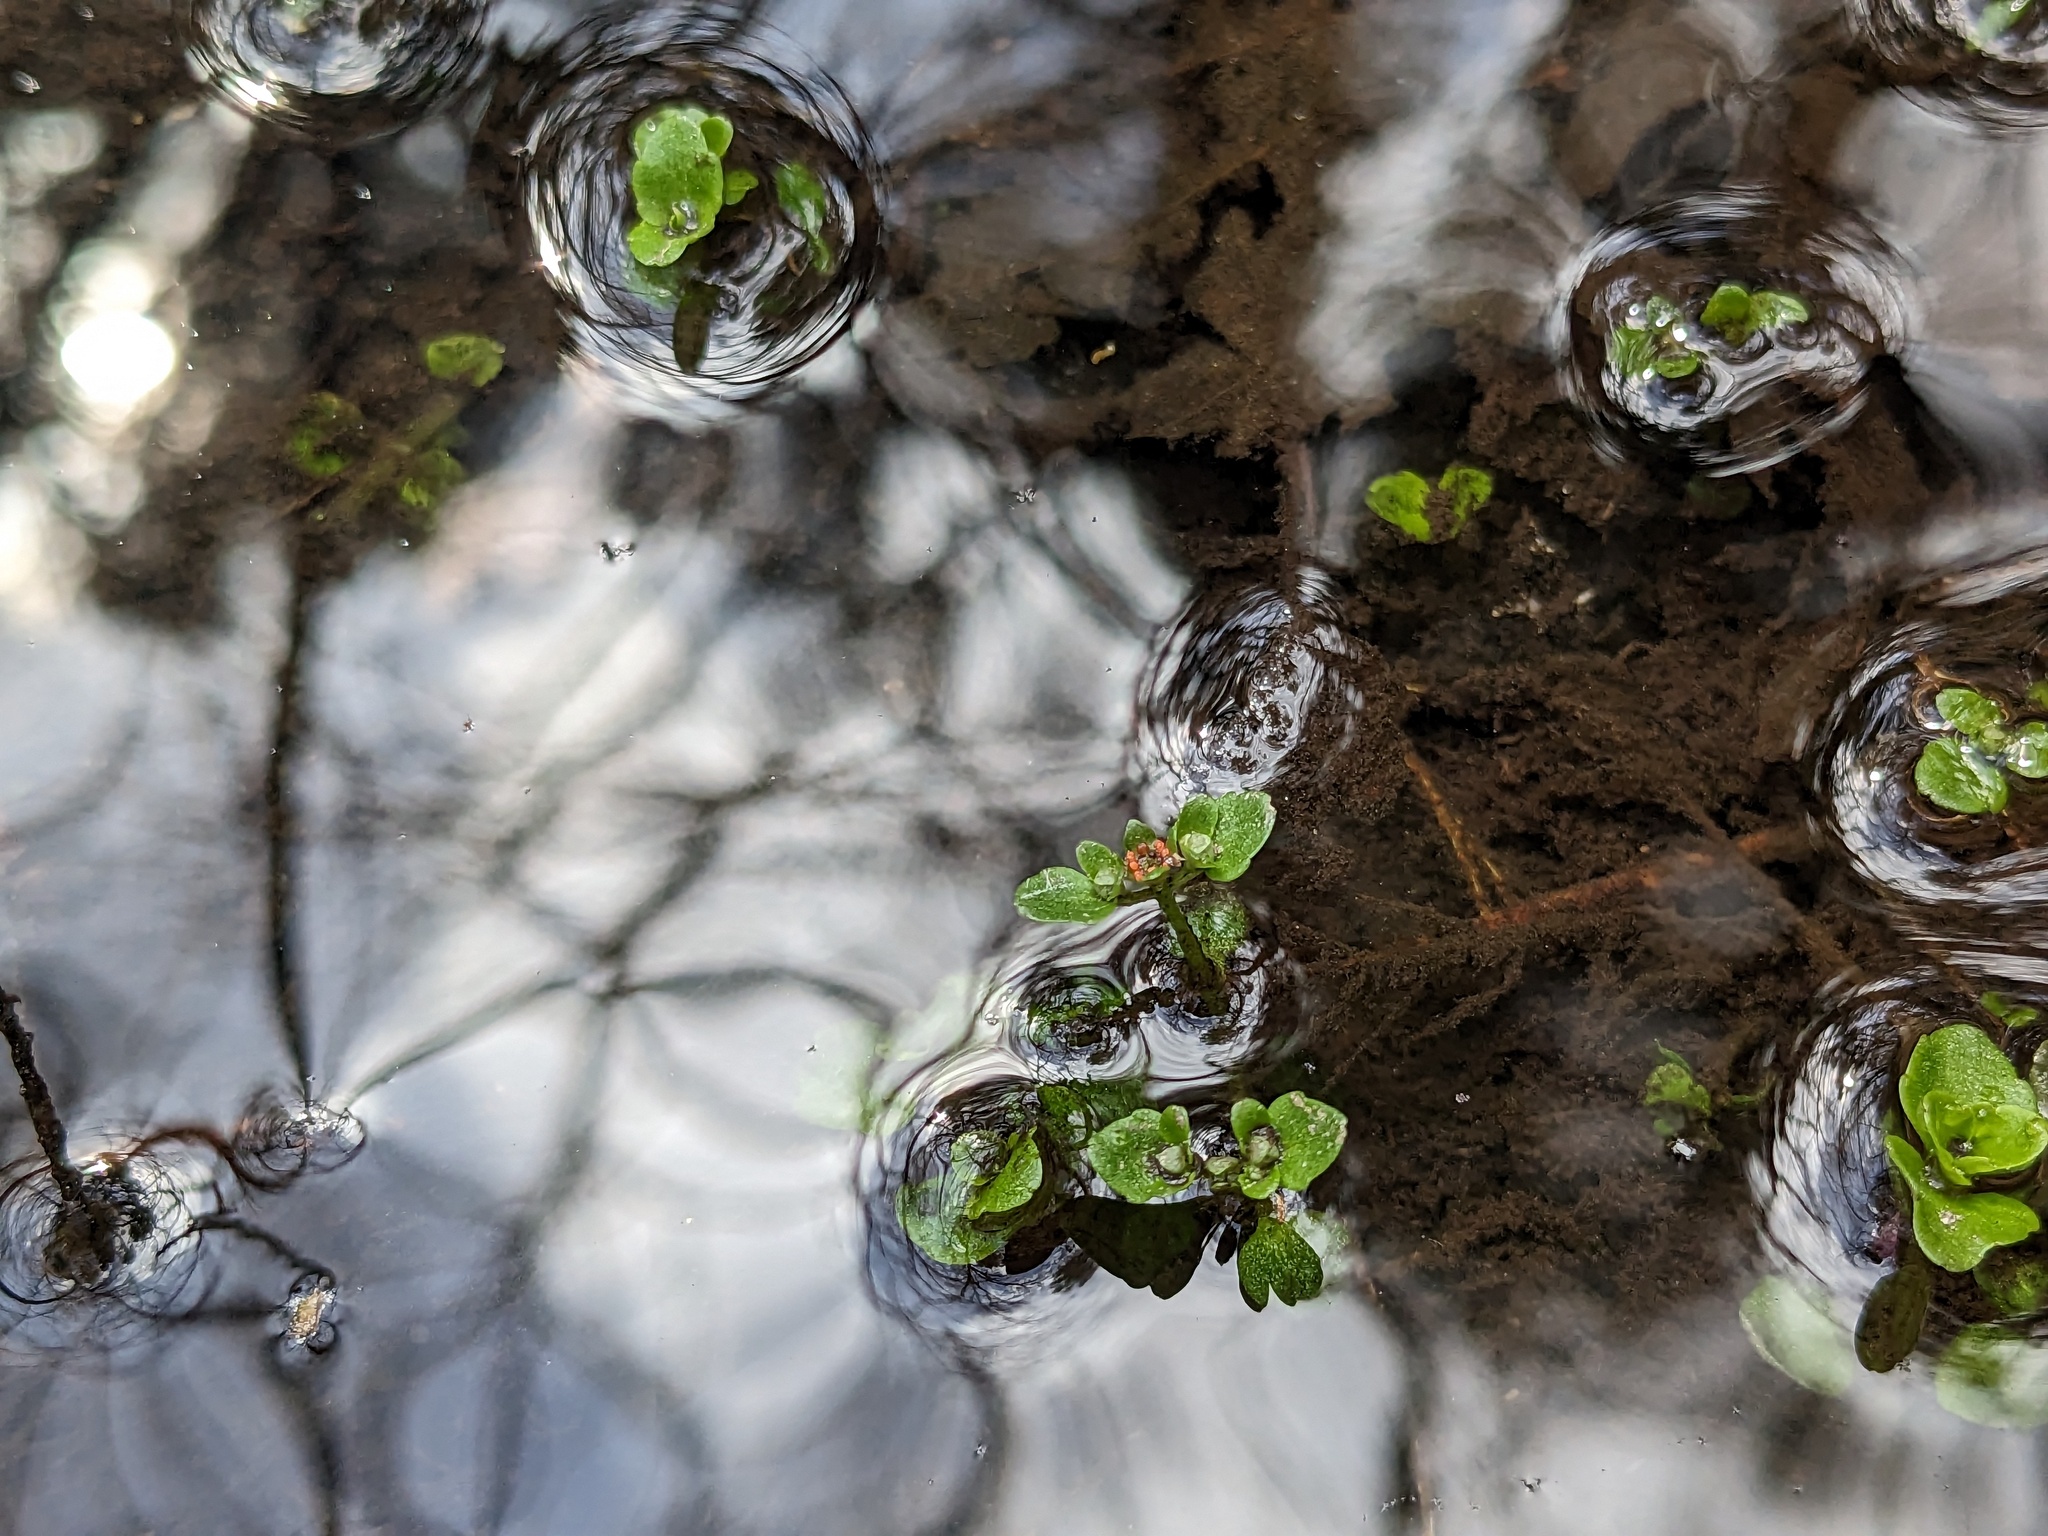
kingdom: Plantae
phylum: Tracheophyta
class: Magnoliopsida
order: Saxifragales
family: Saxifragaceae
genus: Chrysosplenium
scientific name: Chrysosplenium americanum
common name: American golden-saxifrage
